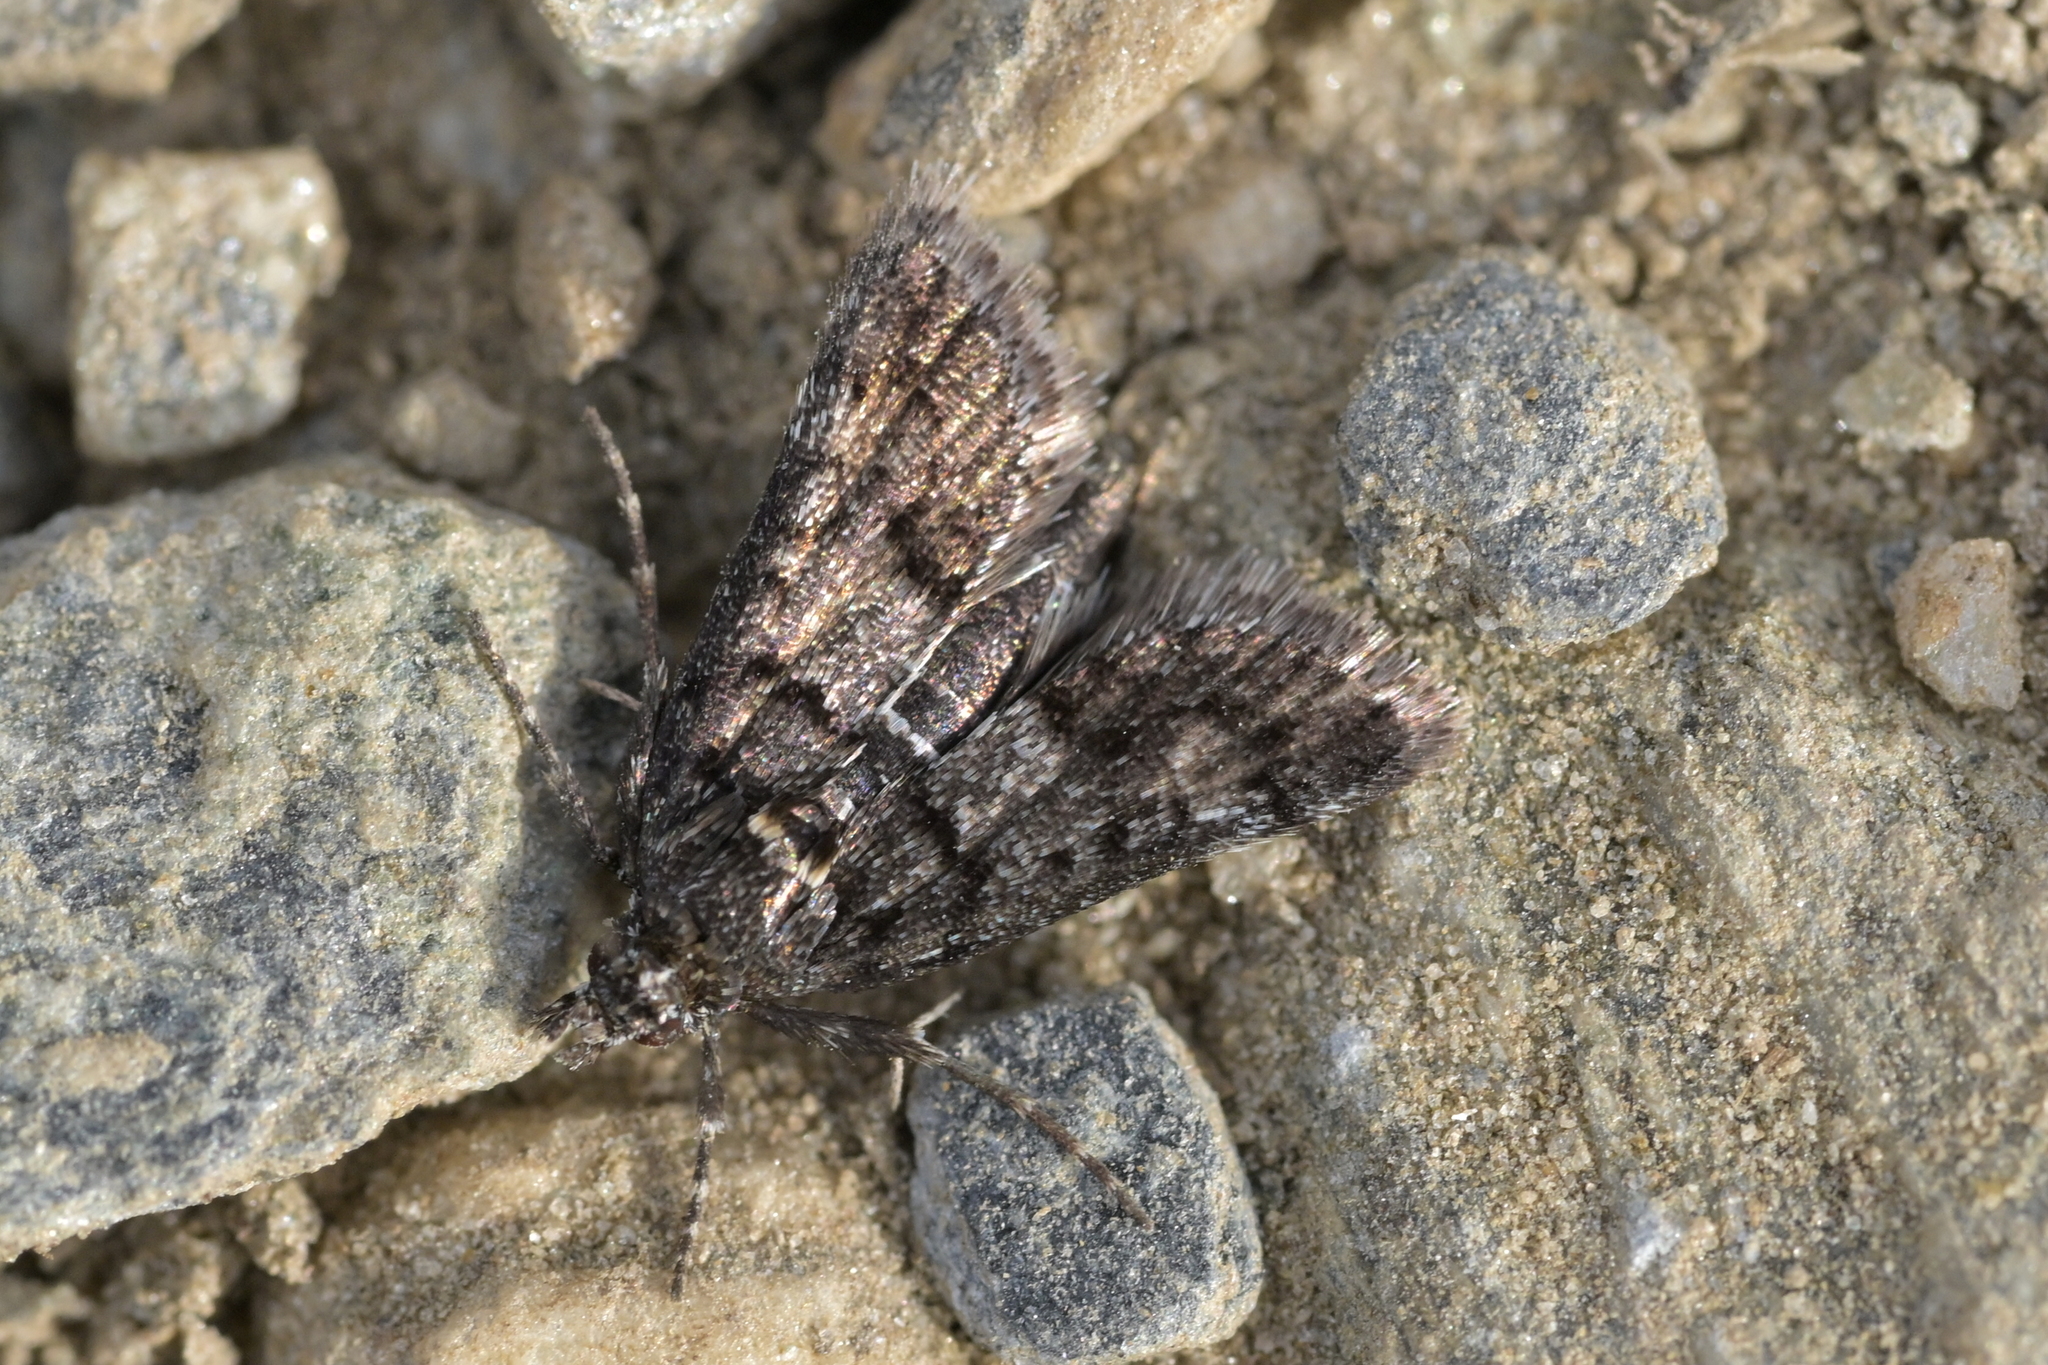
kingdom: Animalia
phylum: Arthropoda
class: Insecta
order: Lepidoptera
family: Crambidae
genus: Heliothela
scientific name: Heliothela atra
